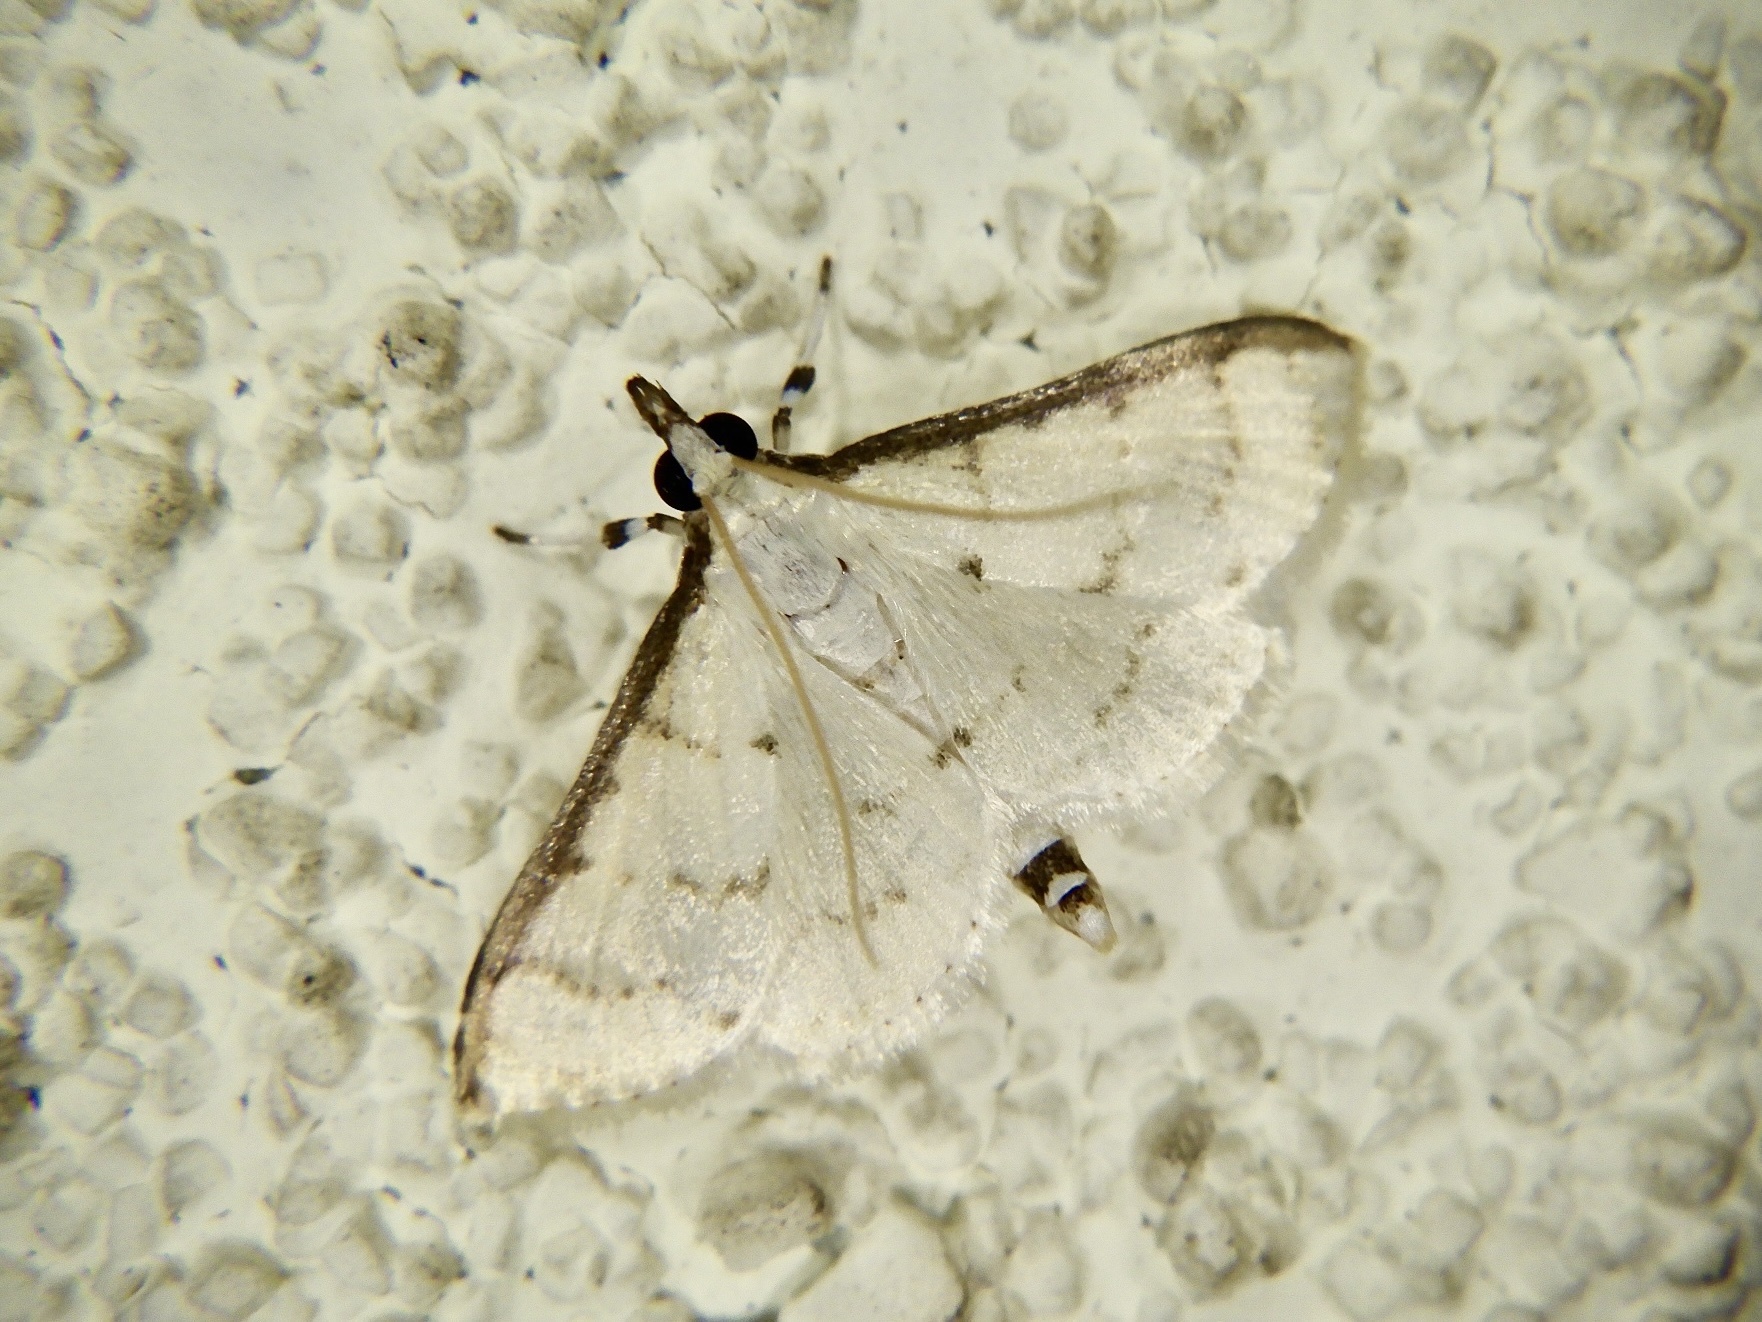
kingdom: Animalia
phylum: Arthropoda
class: Insecta
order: Lepidoptera
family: Crambidae
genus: Herpetogramma
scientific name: Herpetogramma albipennis
